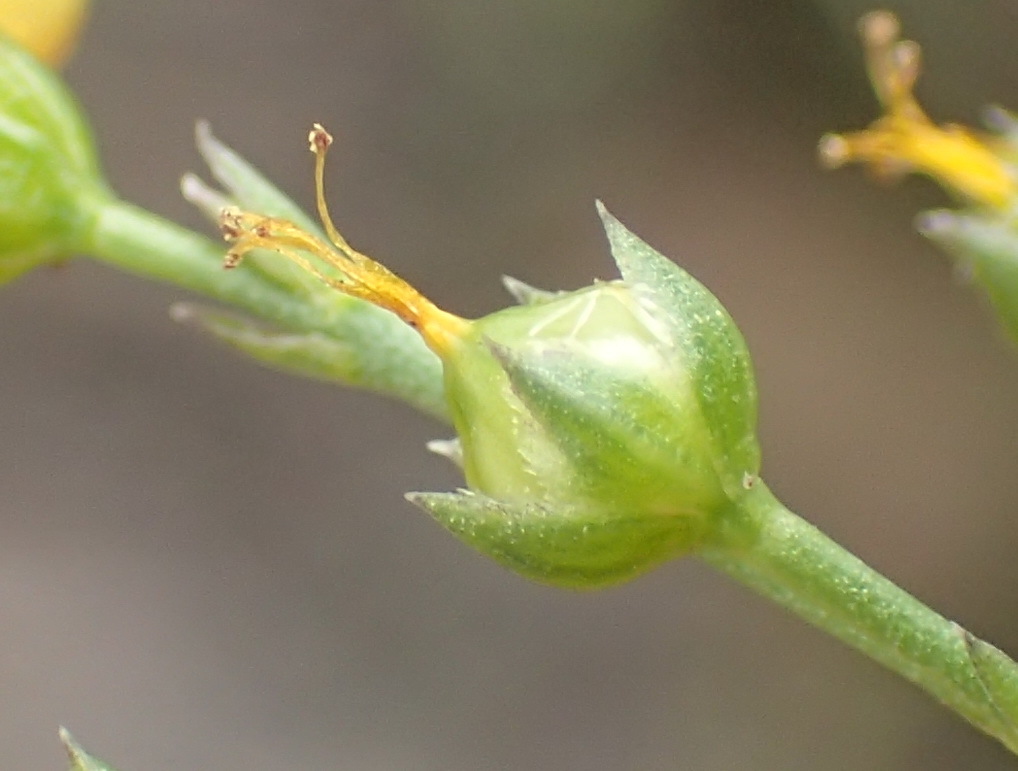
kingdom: Plantae
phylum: Tracheophyta
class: Magnoliopsida
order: Malpighiales
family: Linaceae
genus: Linum
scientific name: Linum thunbergii
